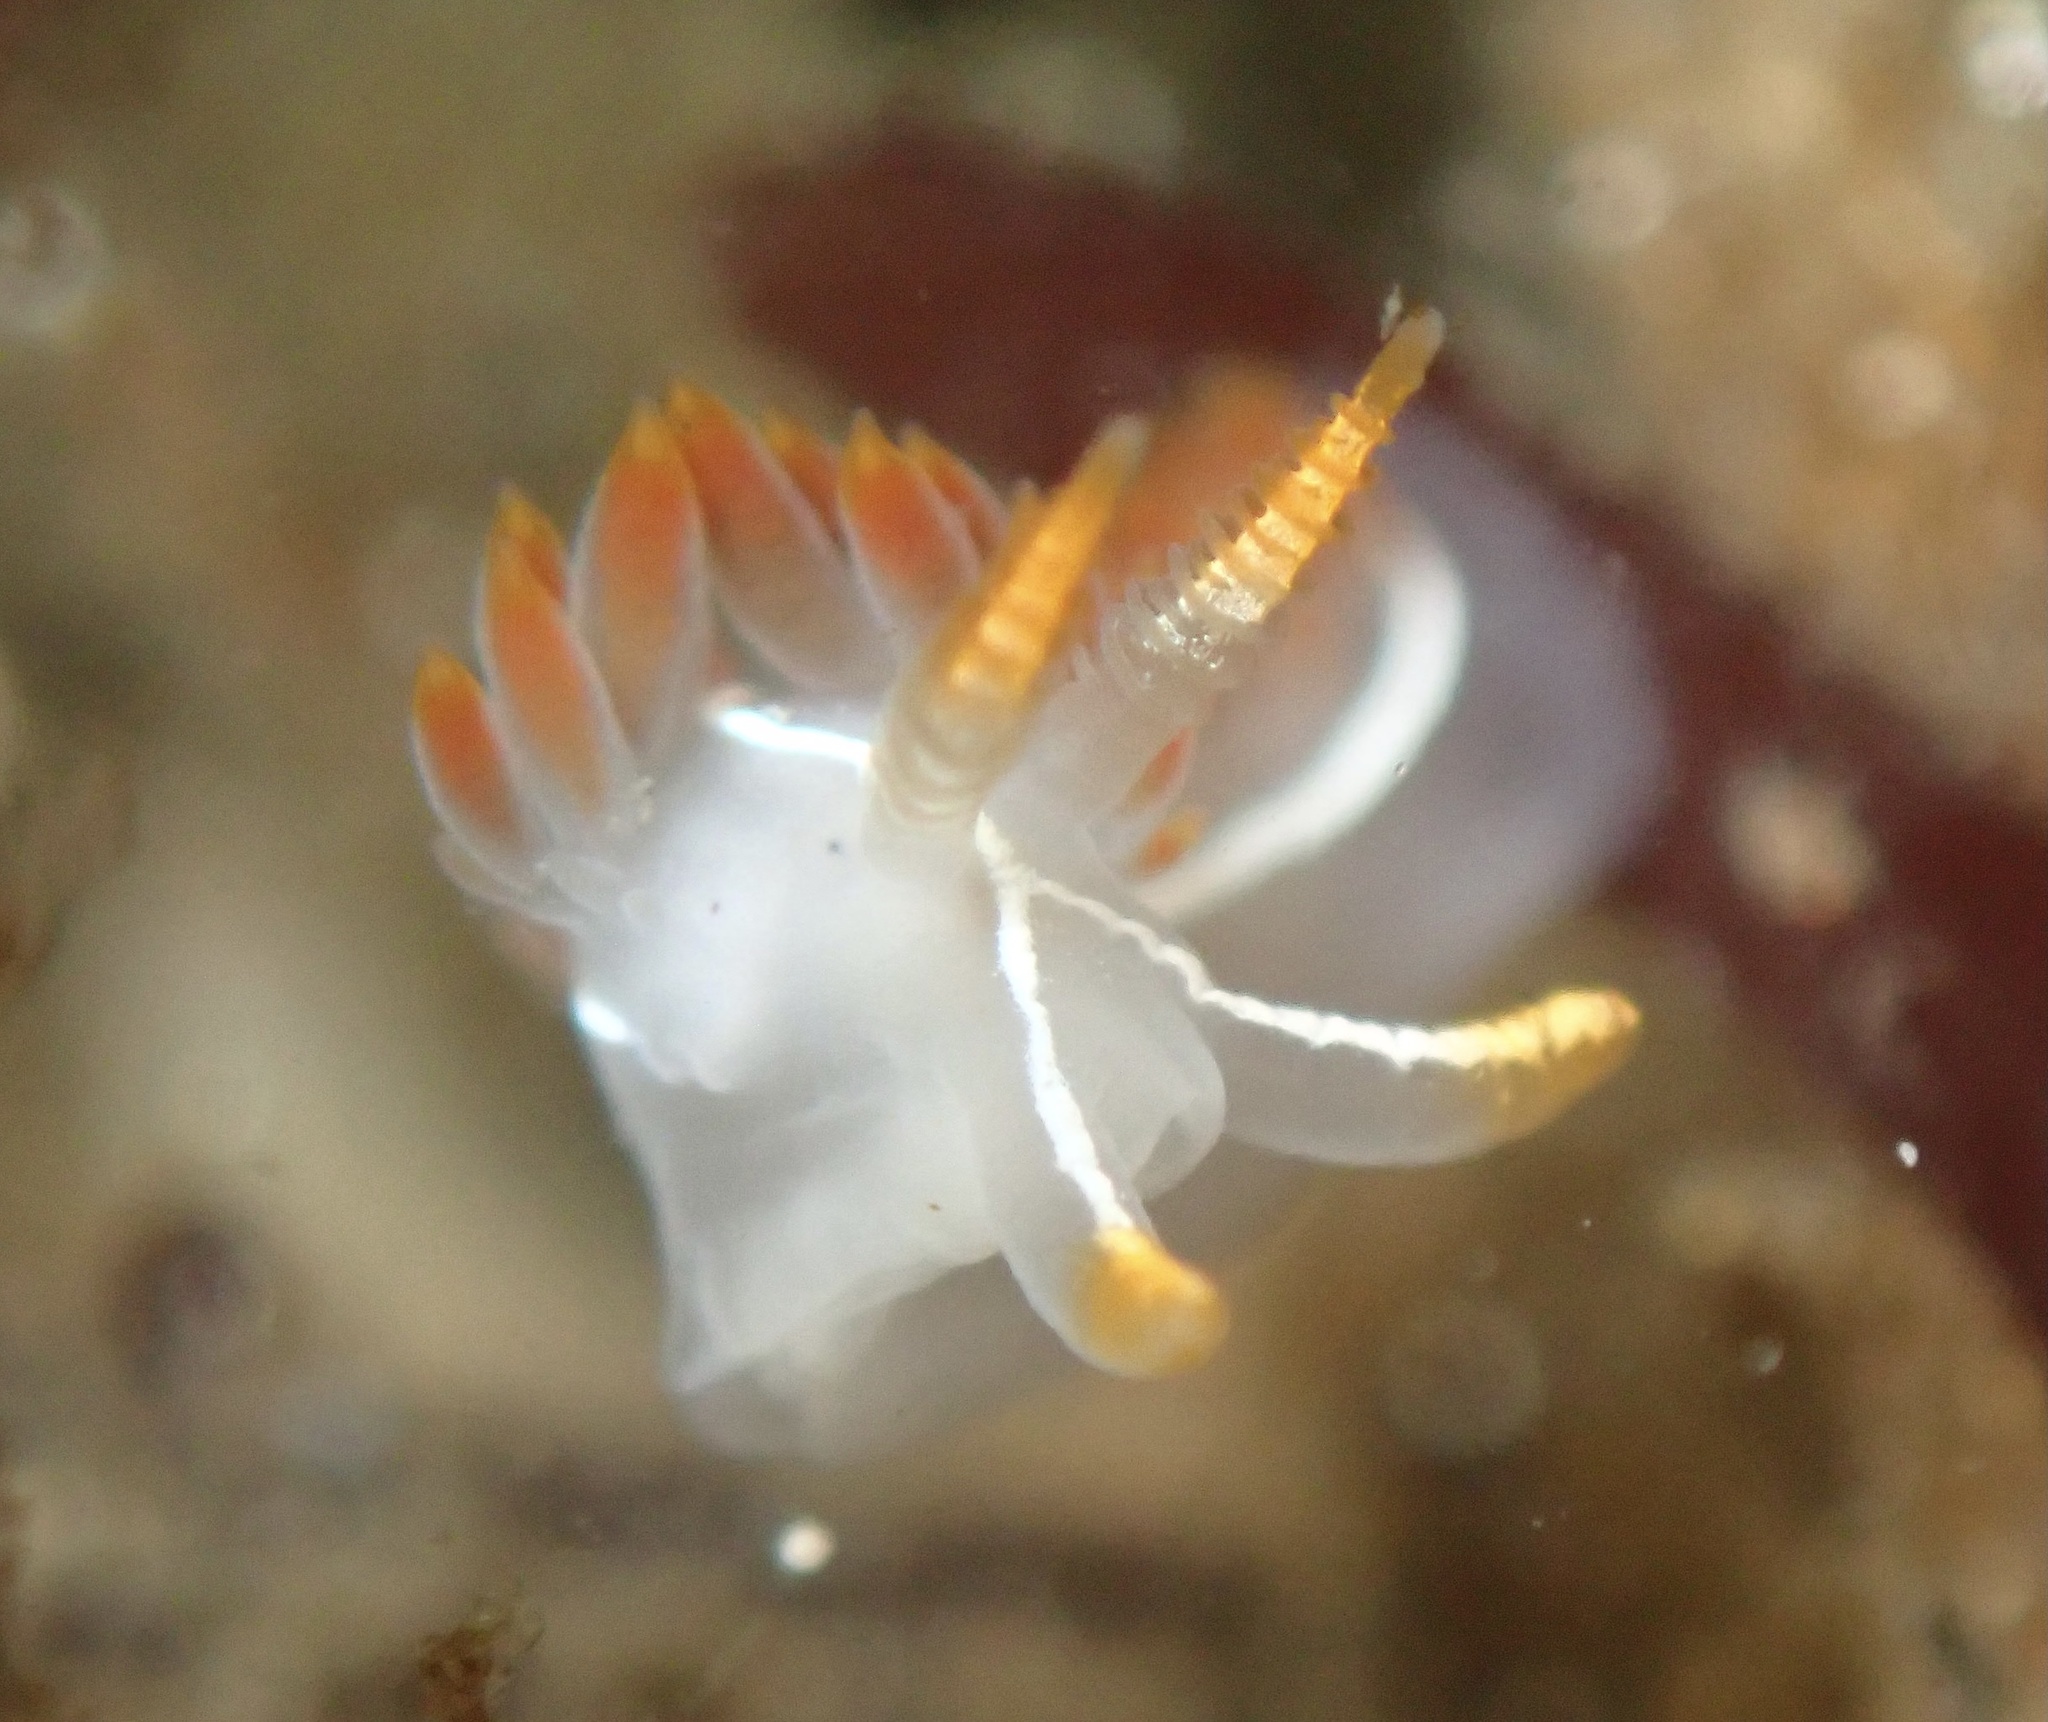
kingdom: Animalia
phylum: Mollusca
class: Gastropoda
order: Nudibranchia
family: Coryphellidae
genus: Coryphella
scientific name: Coryphella trilineata
